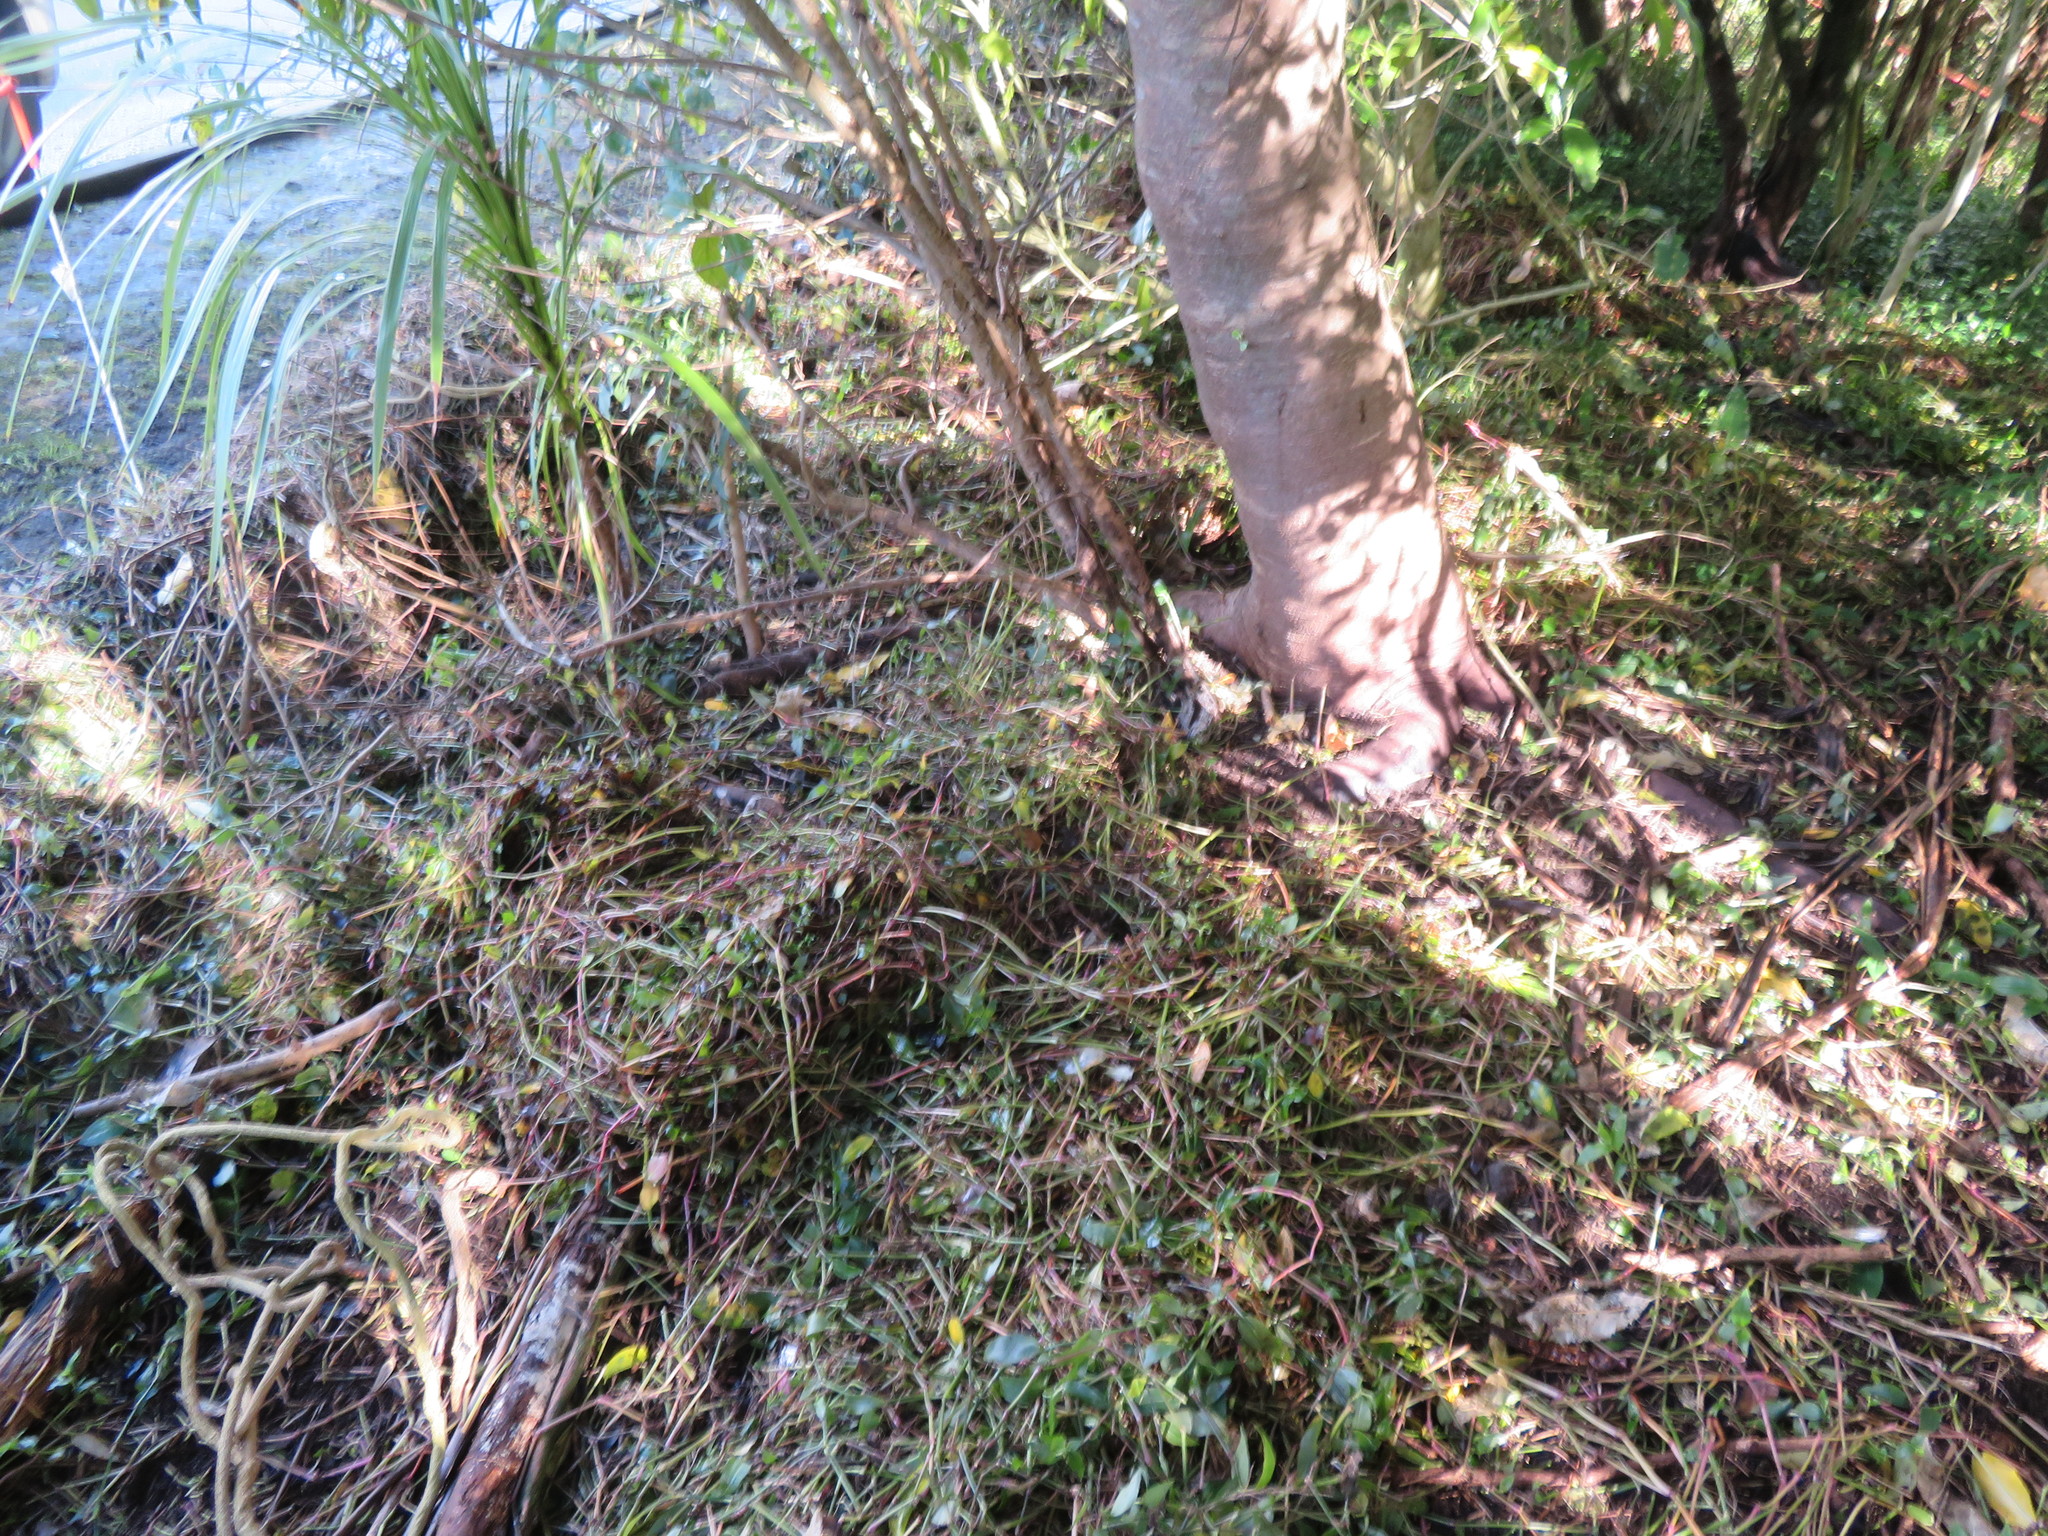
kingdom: Plantae
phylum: Tracheophyta
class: Liliopsida
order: Commelinales
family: Commelinaceae
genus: Tradescantia
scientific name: Tradescantia fluminensis
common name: Wandering-jew
